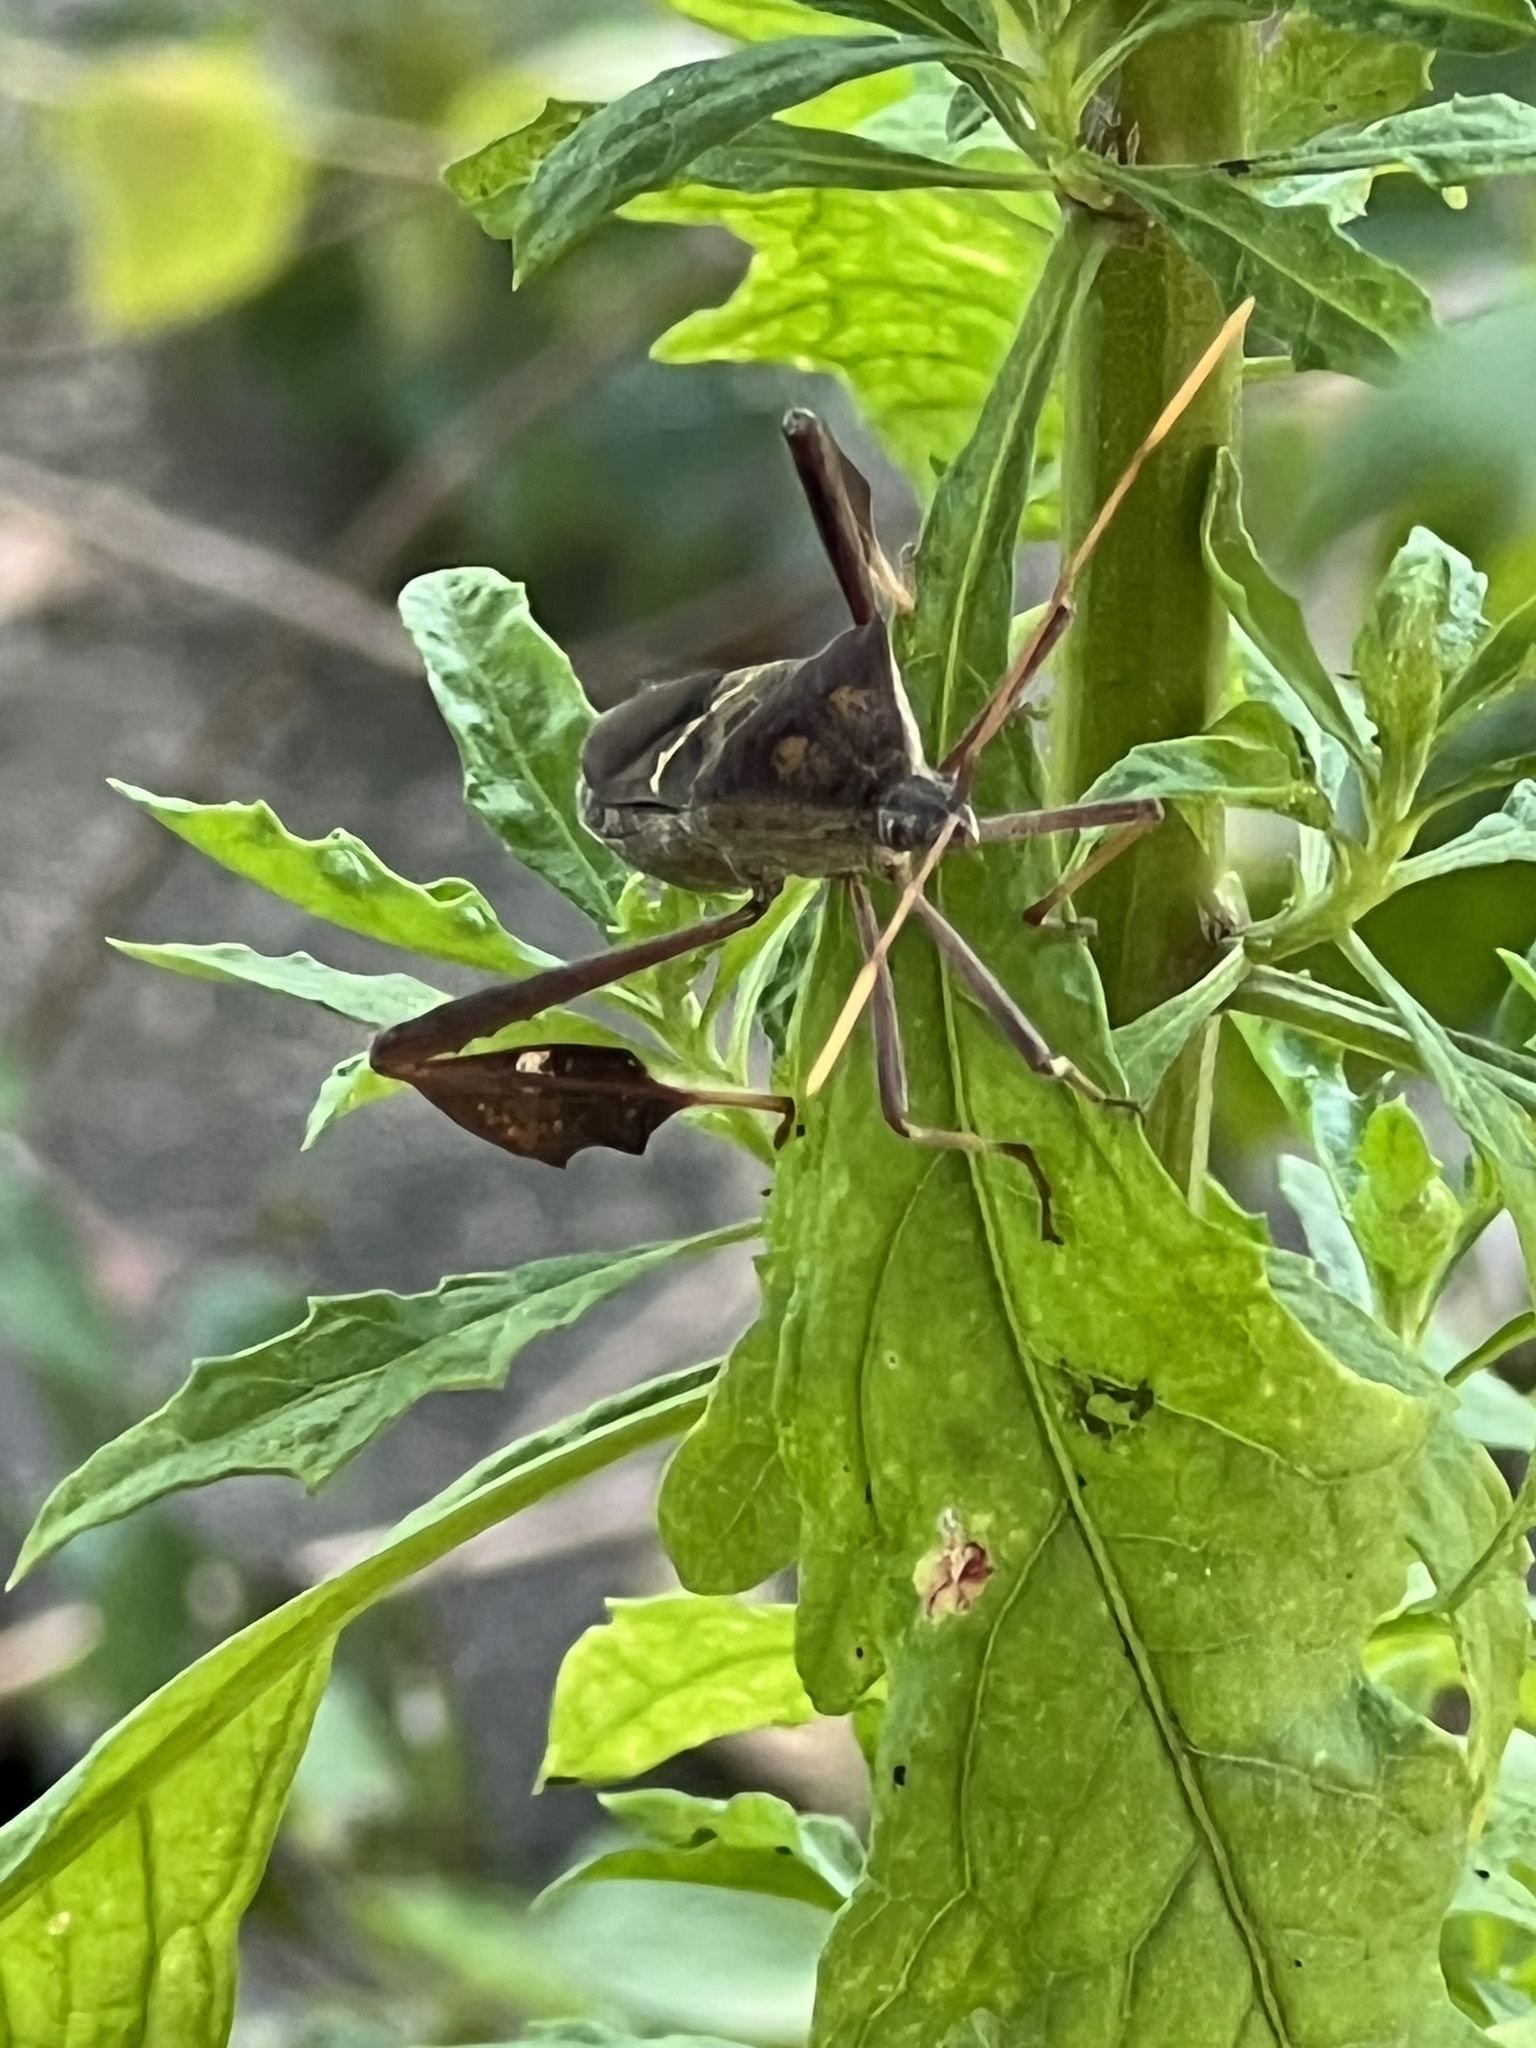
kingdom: Animalia
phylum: Arthropoda
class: Insecta
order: Hemiptera
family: Coreidae
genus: Leptoglossus
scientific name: Leptoglossus zonatus
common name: Large-legged bug
